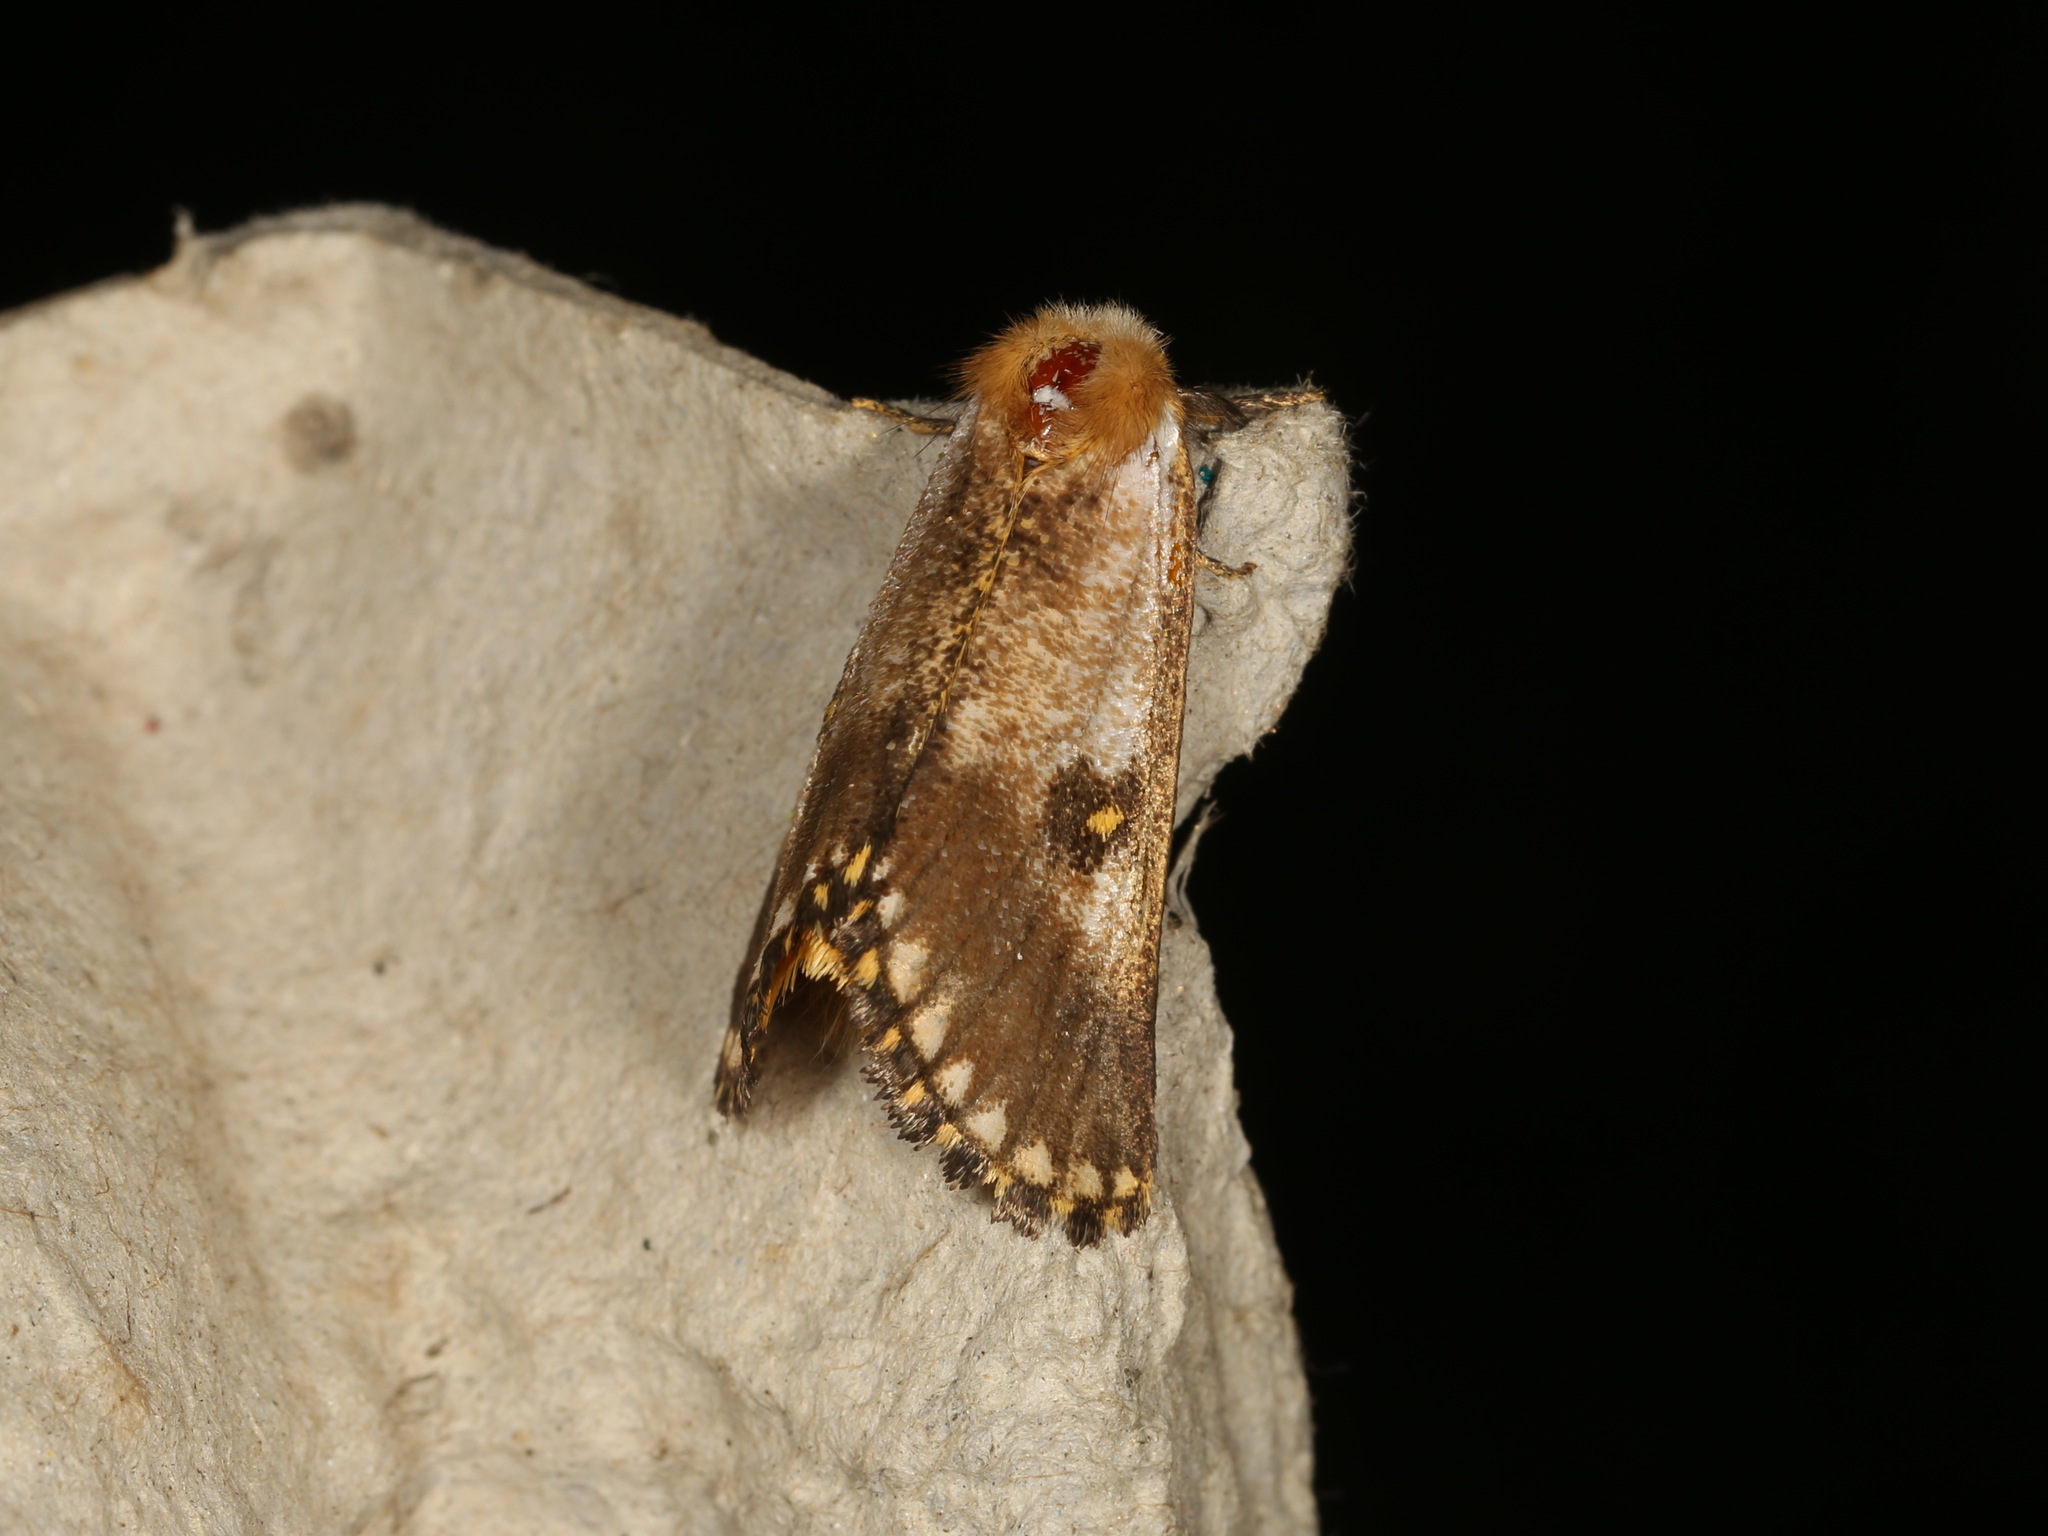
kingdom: Animalia
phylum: Arthropoda
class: Insecta
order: Lepidoptera
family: Notodontidae
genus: Epicoma
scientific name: Epicoma contristis
